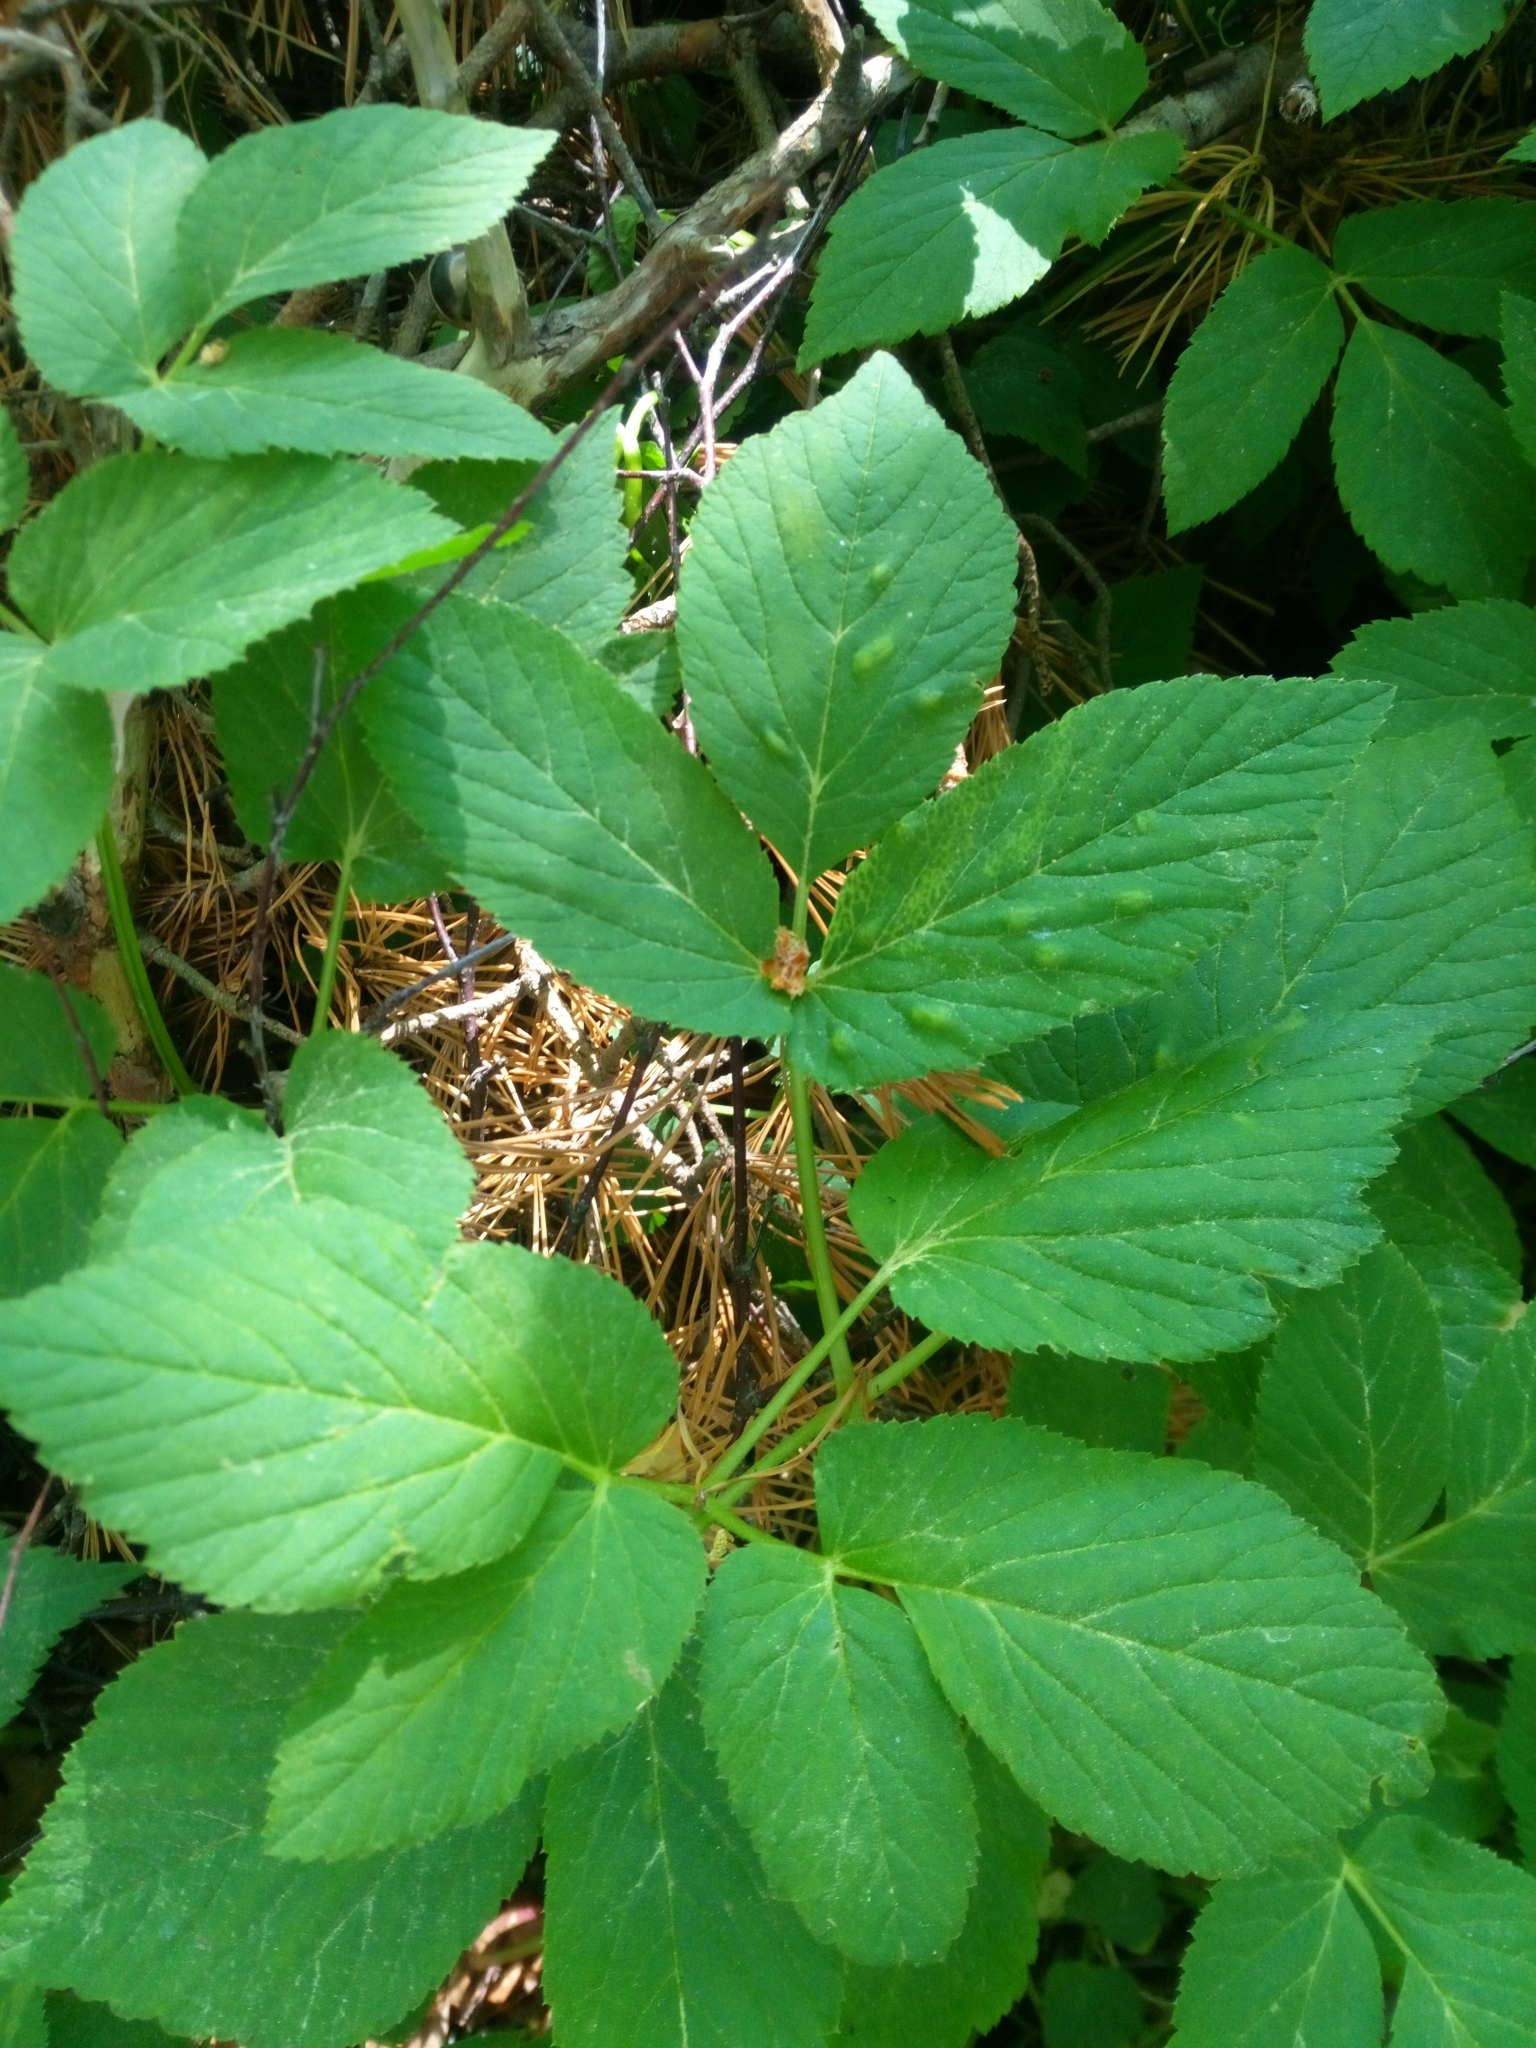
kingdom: Plantae
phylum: Tracheophyta
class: Magnoliopsida
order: Apiales
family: Apiaceae
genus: Aegopodium
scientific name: Aegopodium podagraria
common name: Ground-elder
